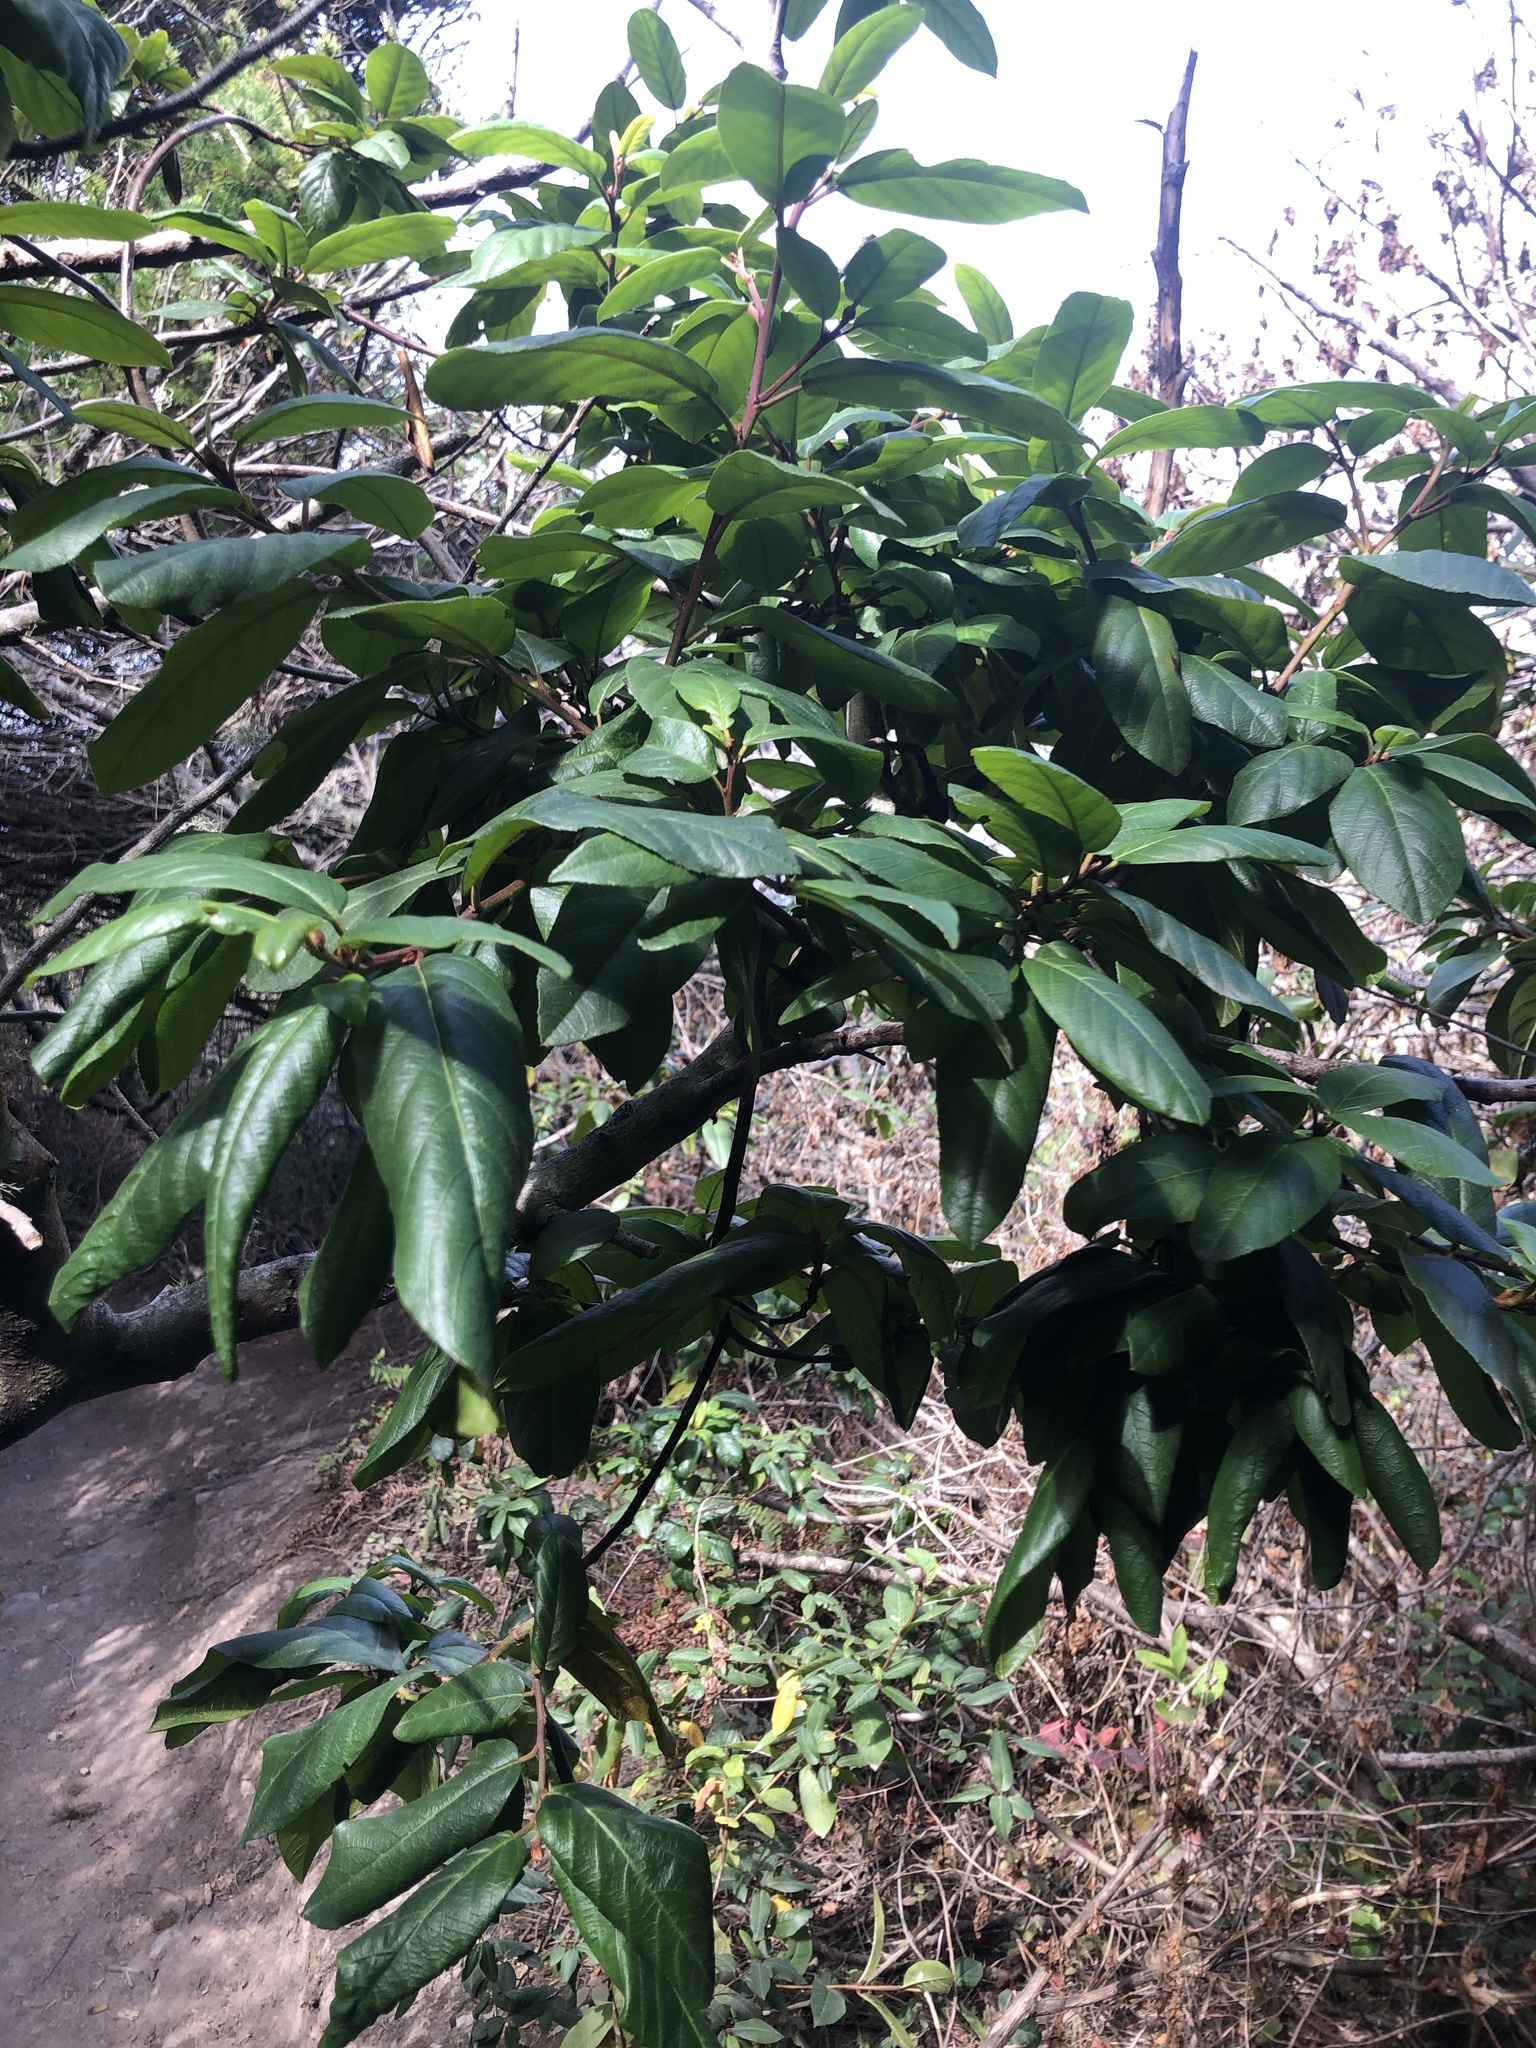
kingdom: Plantae
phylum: Tracheophyta
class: Magnoliopsida
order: Rosales
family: Rhamnaceae
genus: Frangula
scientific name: Frangula californica
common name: California buckthorn
